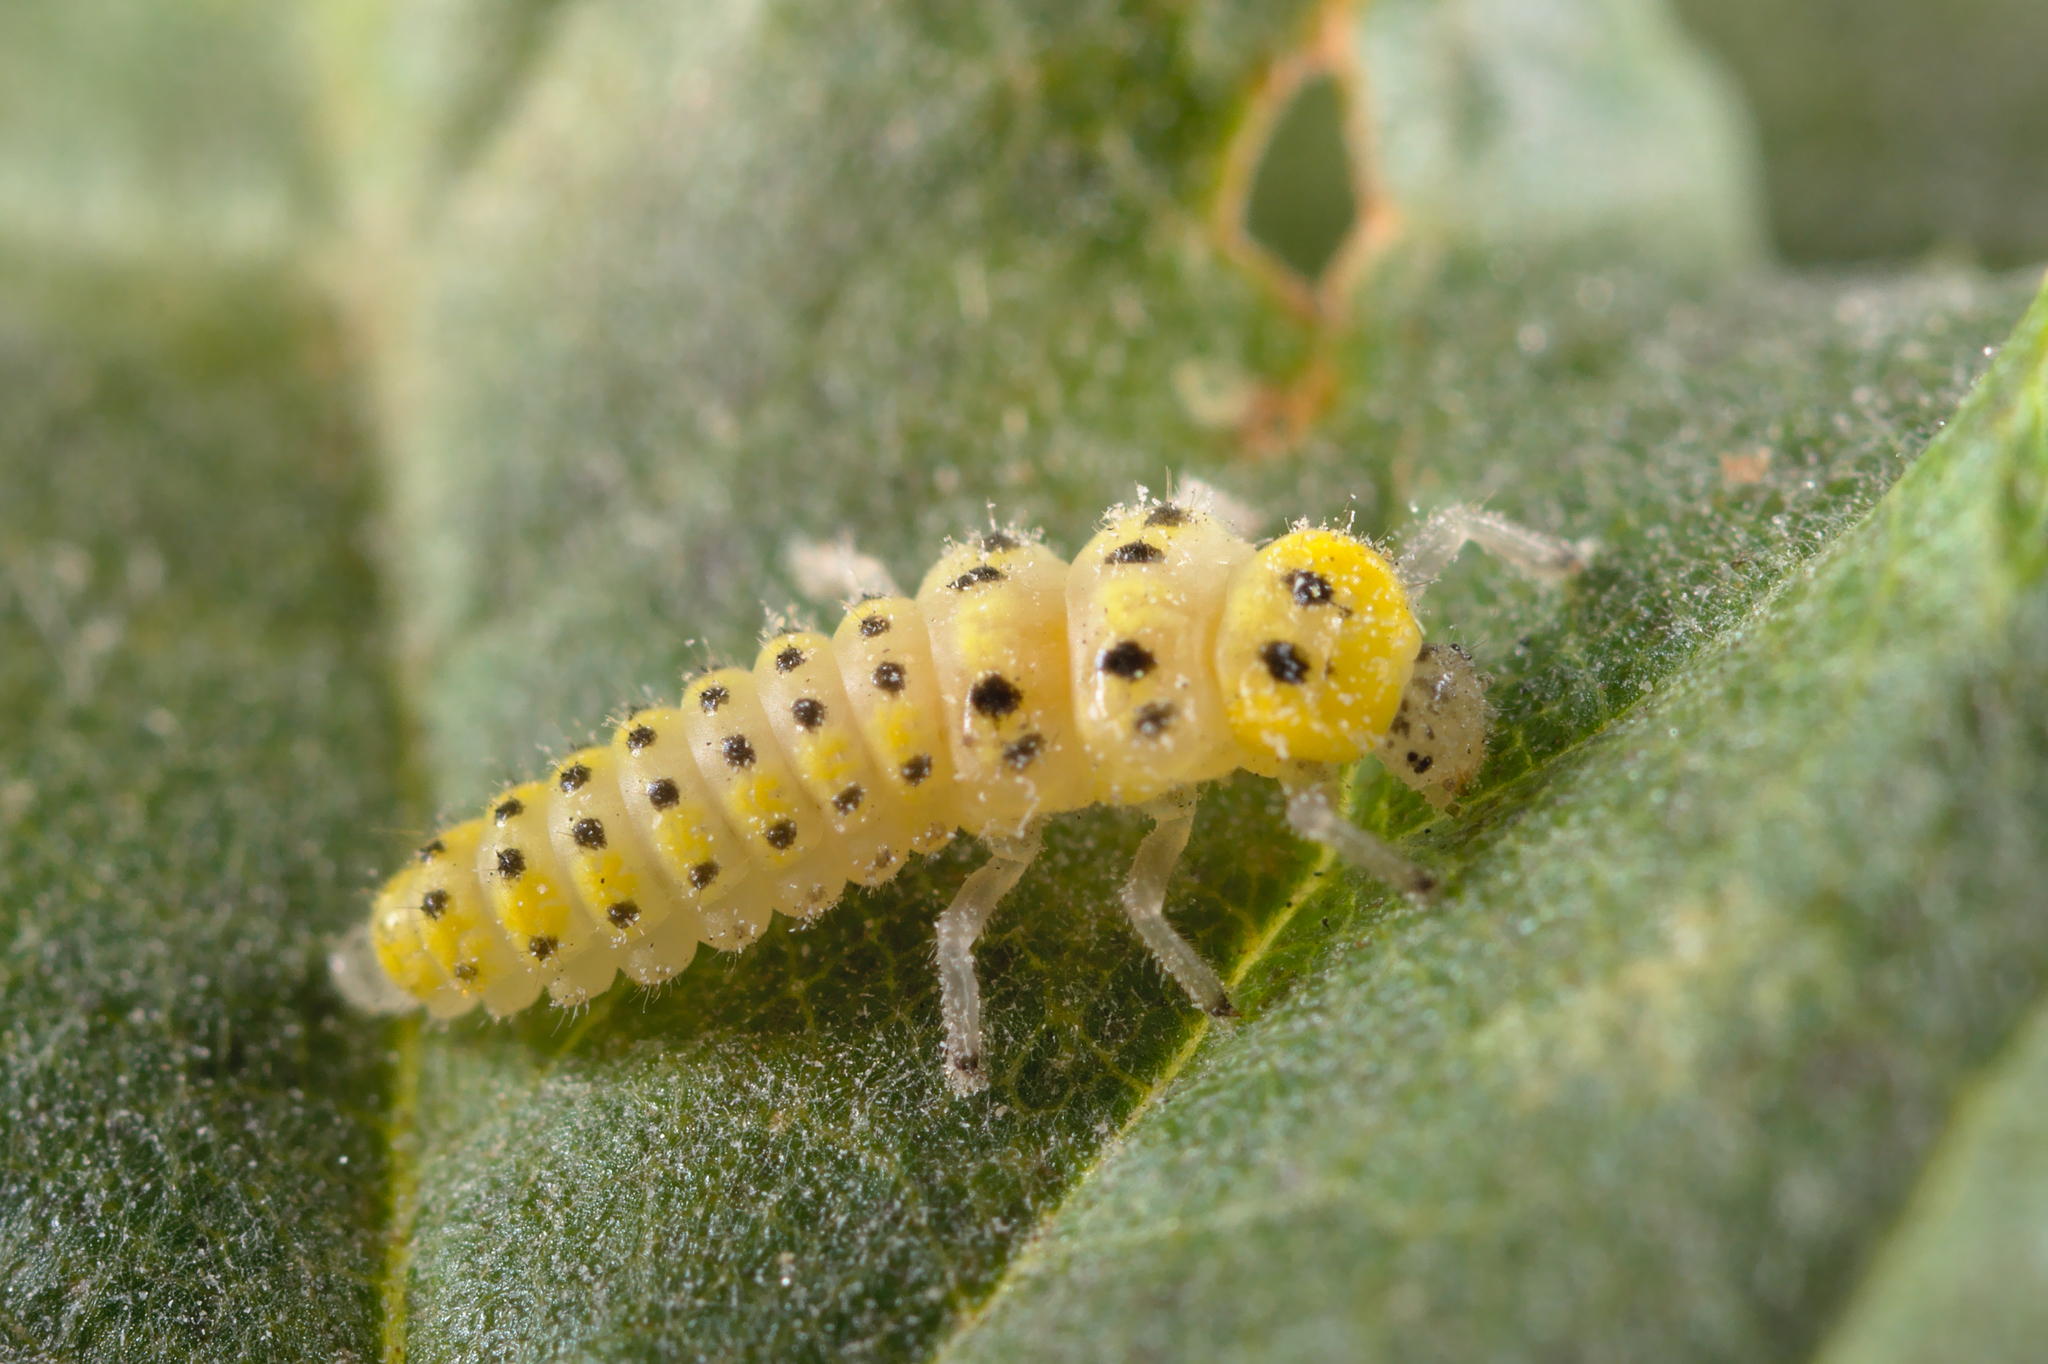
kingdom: Animalia
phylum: Arthropoda
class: Insecta
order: Coleoptera
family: Coccinellidae
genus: Vibidia
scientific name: Vibidia duodecimguttata
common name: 12-spot ladybird
